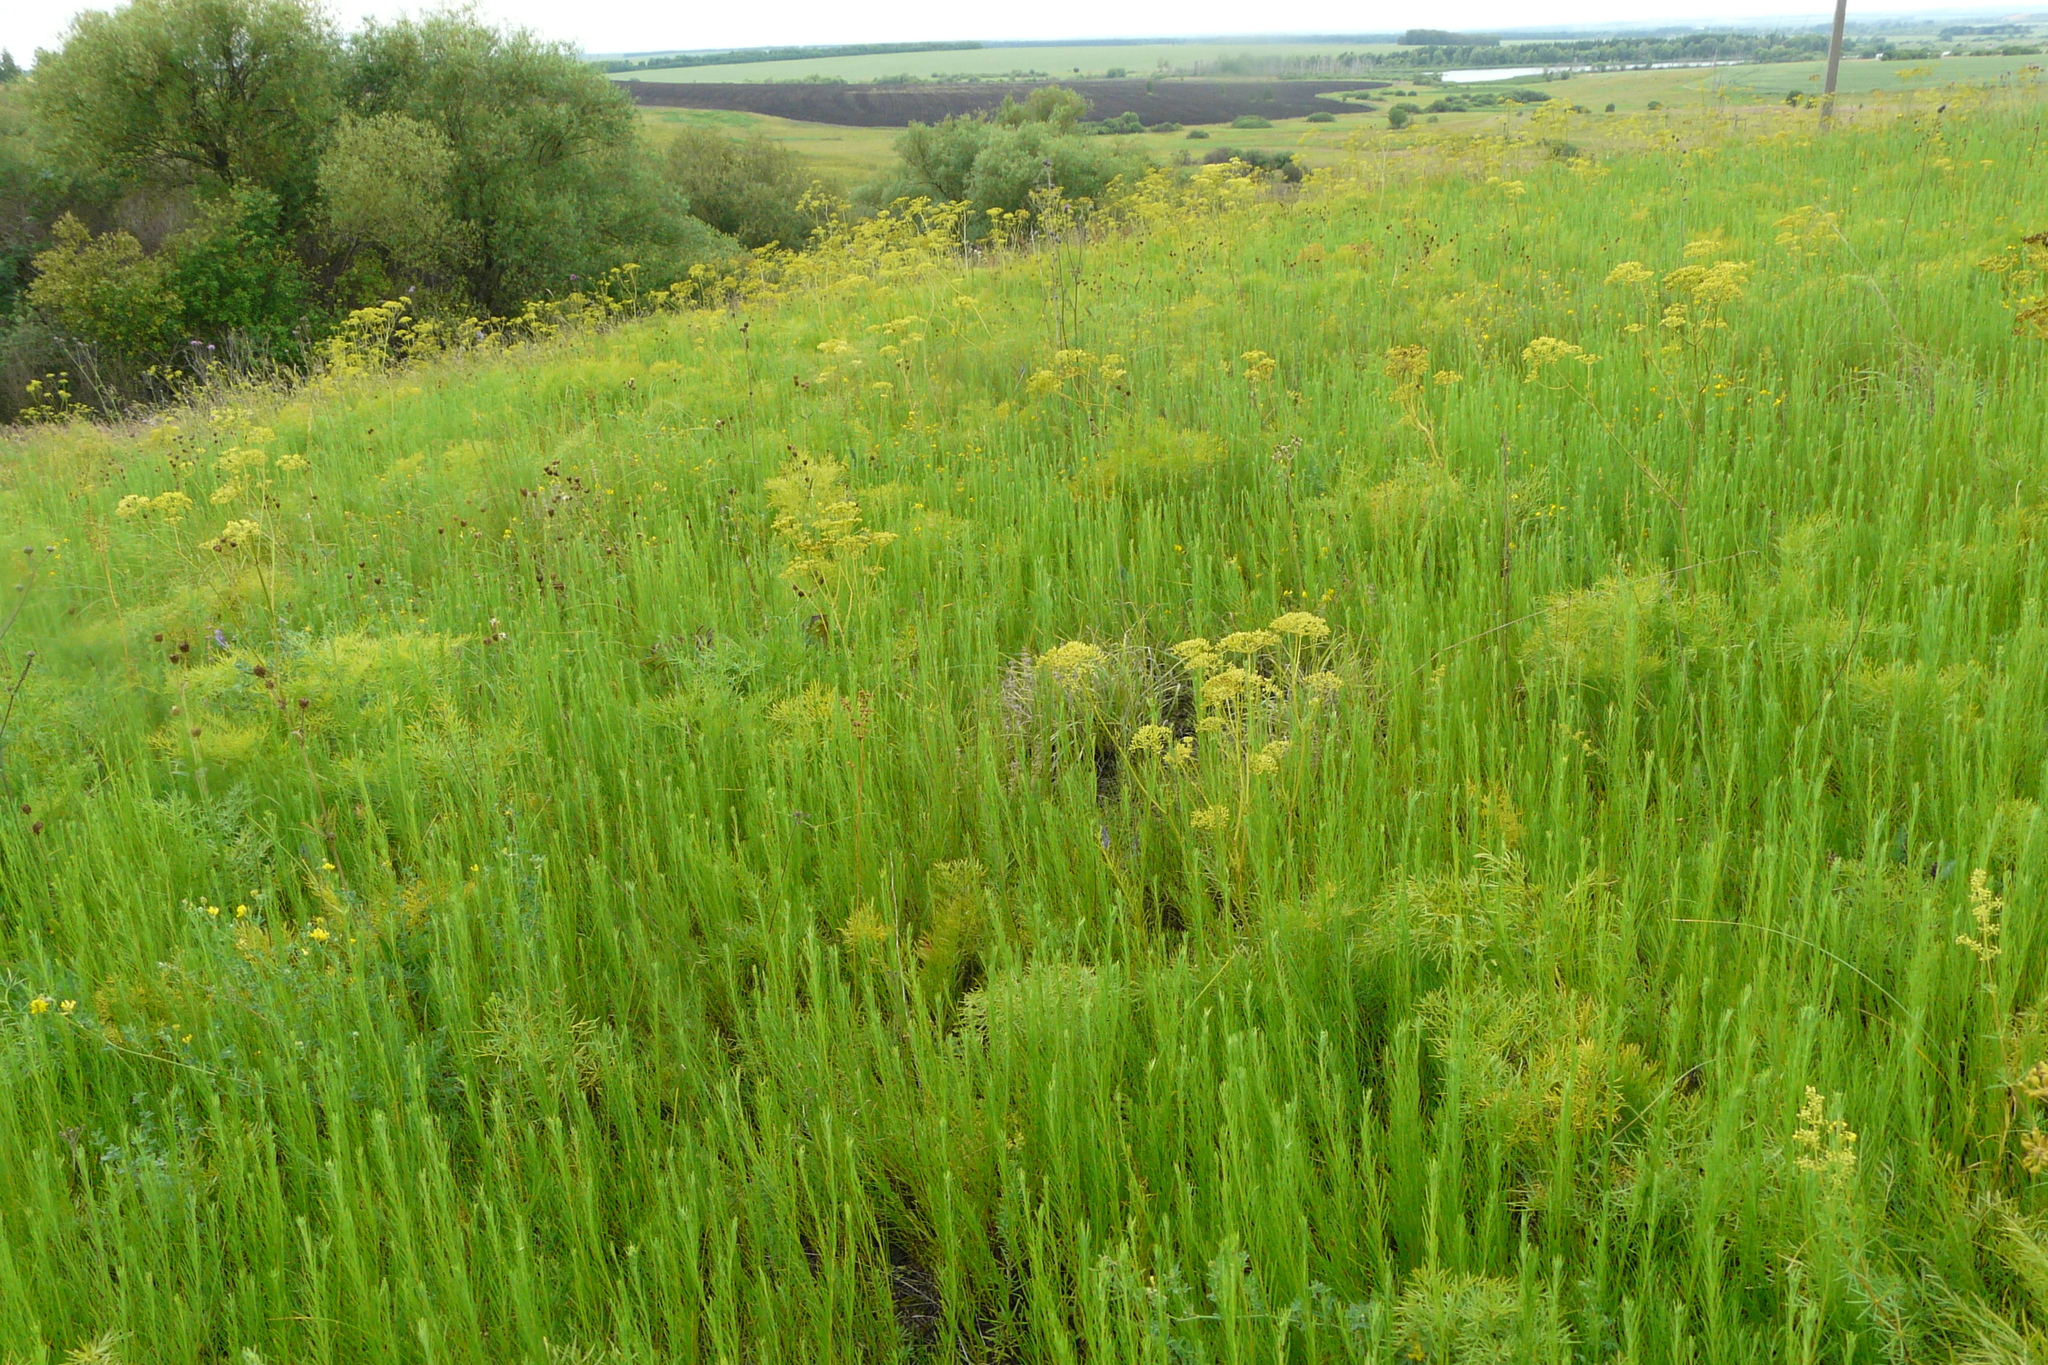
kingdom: Plantae
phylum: Tracheophyta
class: Magnoliopsida
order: Asterales
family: Asteraceae
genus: Galatella
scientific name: Galatella linosyris
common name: Goldilocks aster
